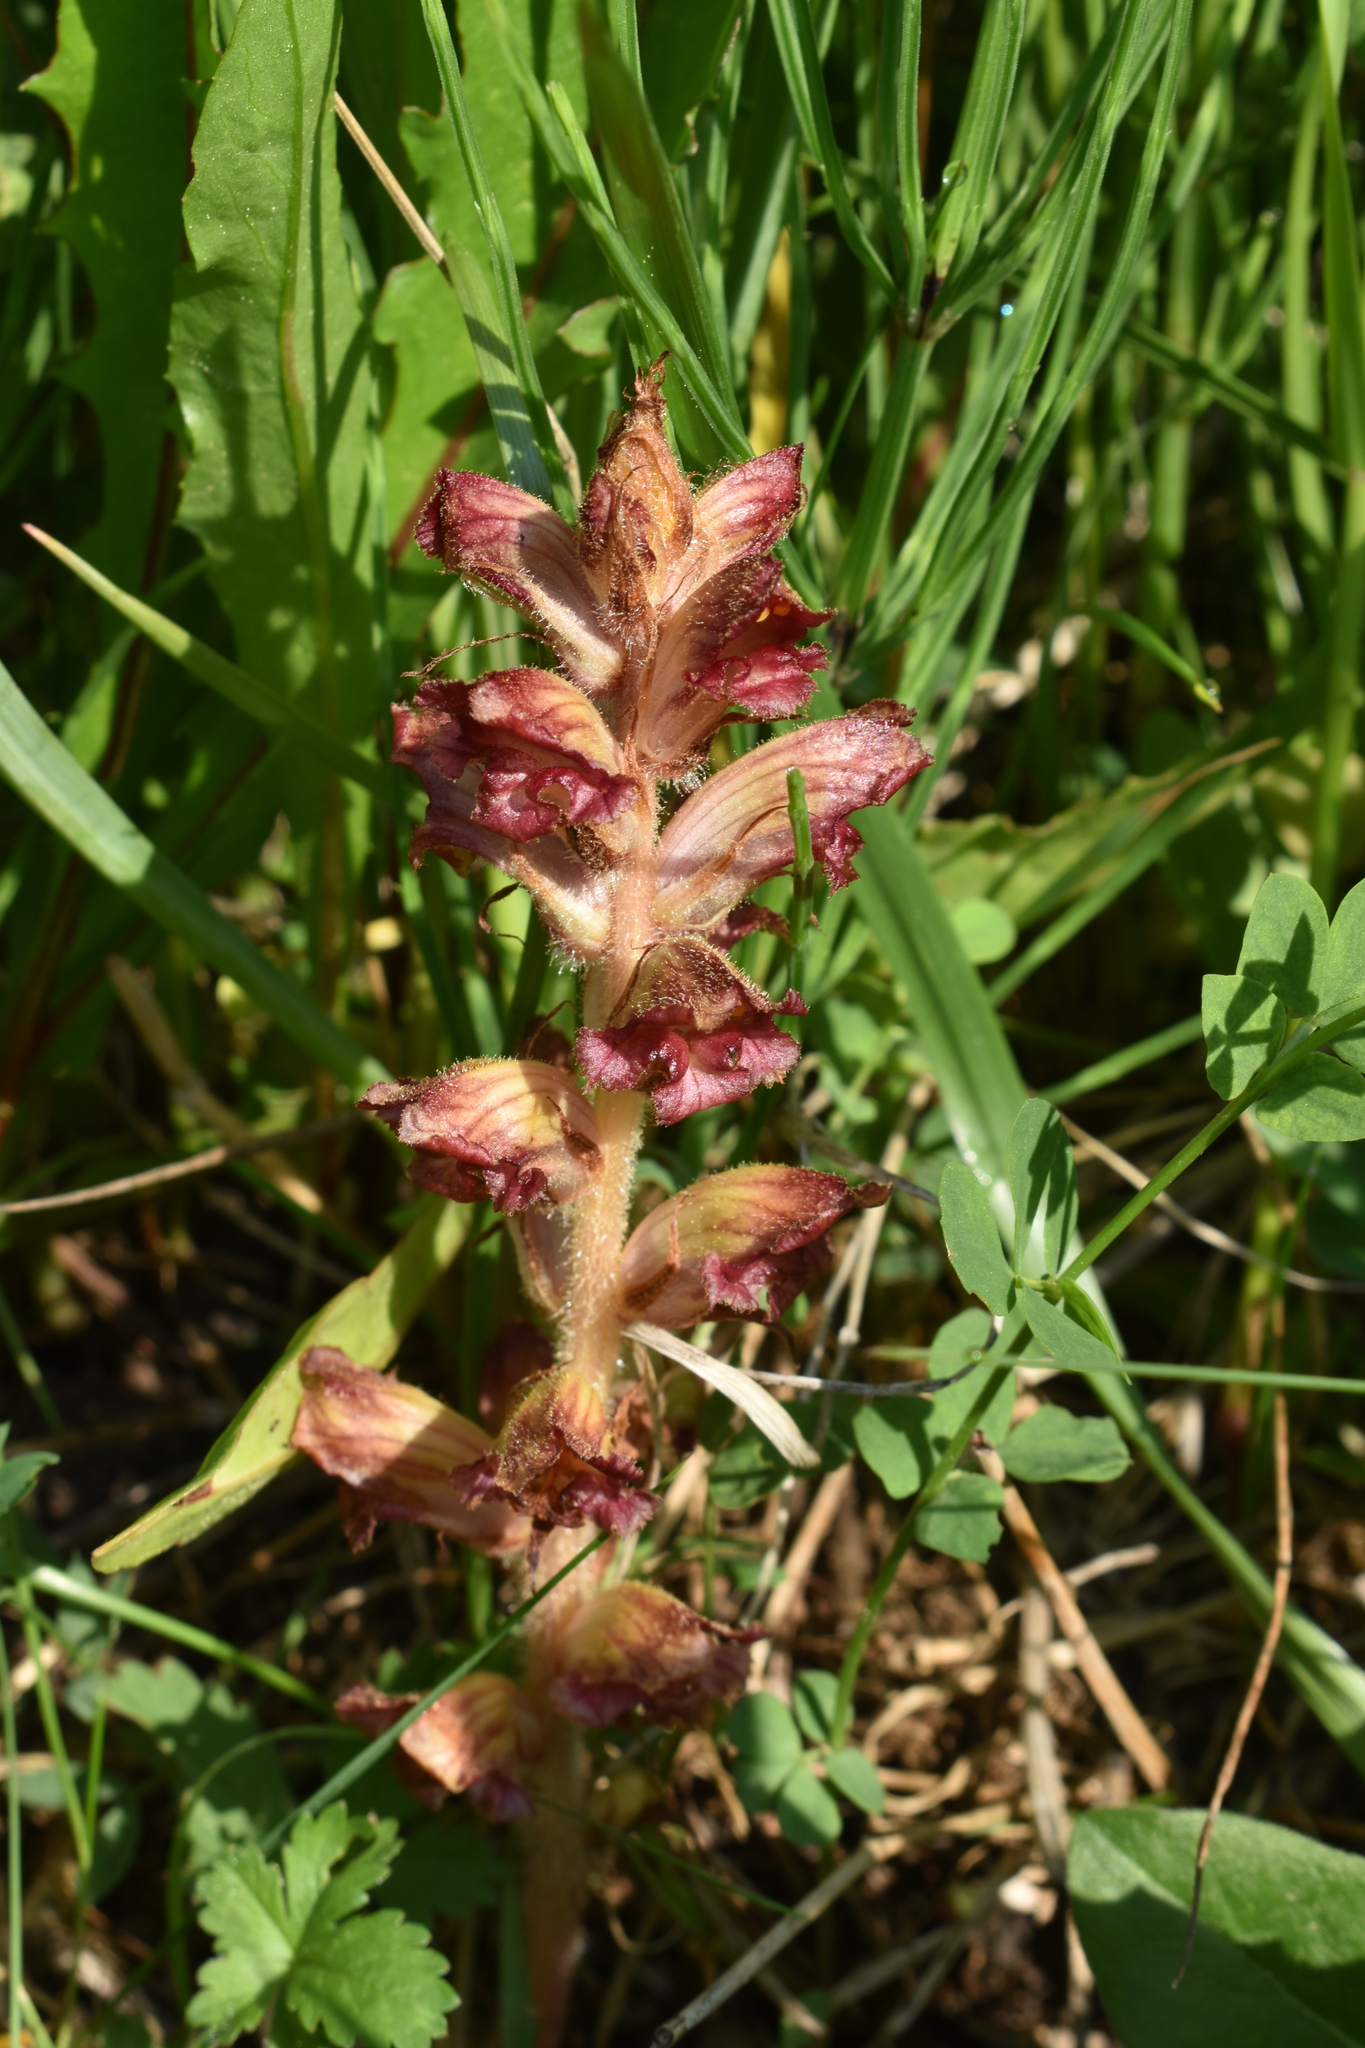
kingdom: Plantae
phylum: Tracheophyta
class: Magnoliopsida
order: Lamiales
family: Orobanchaceae
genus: Orobanche
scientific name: Orobanche gracilis
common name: Slender broomrape
